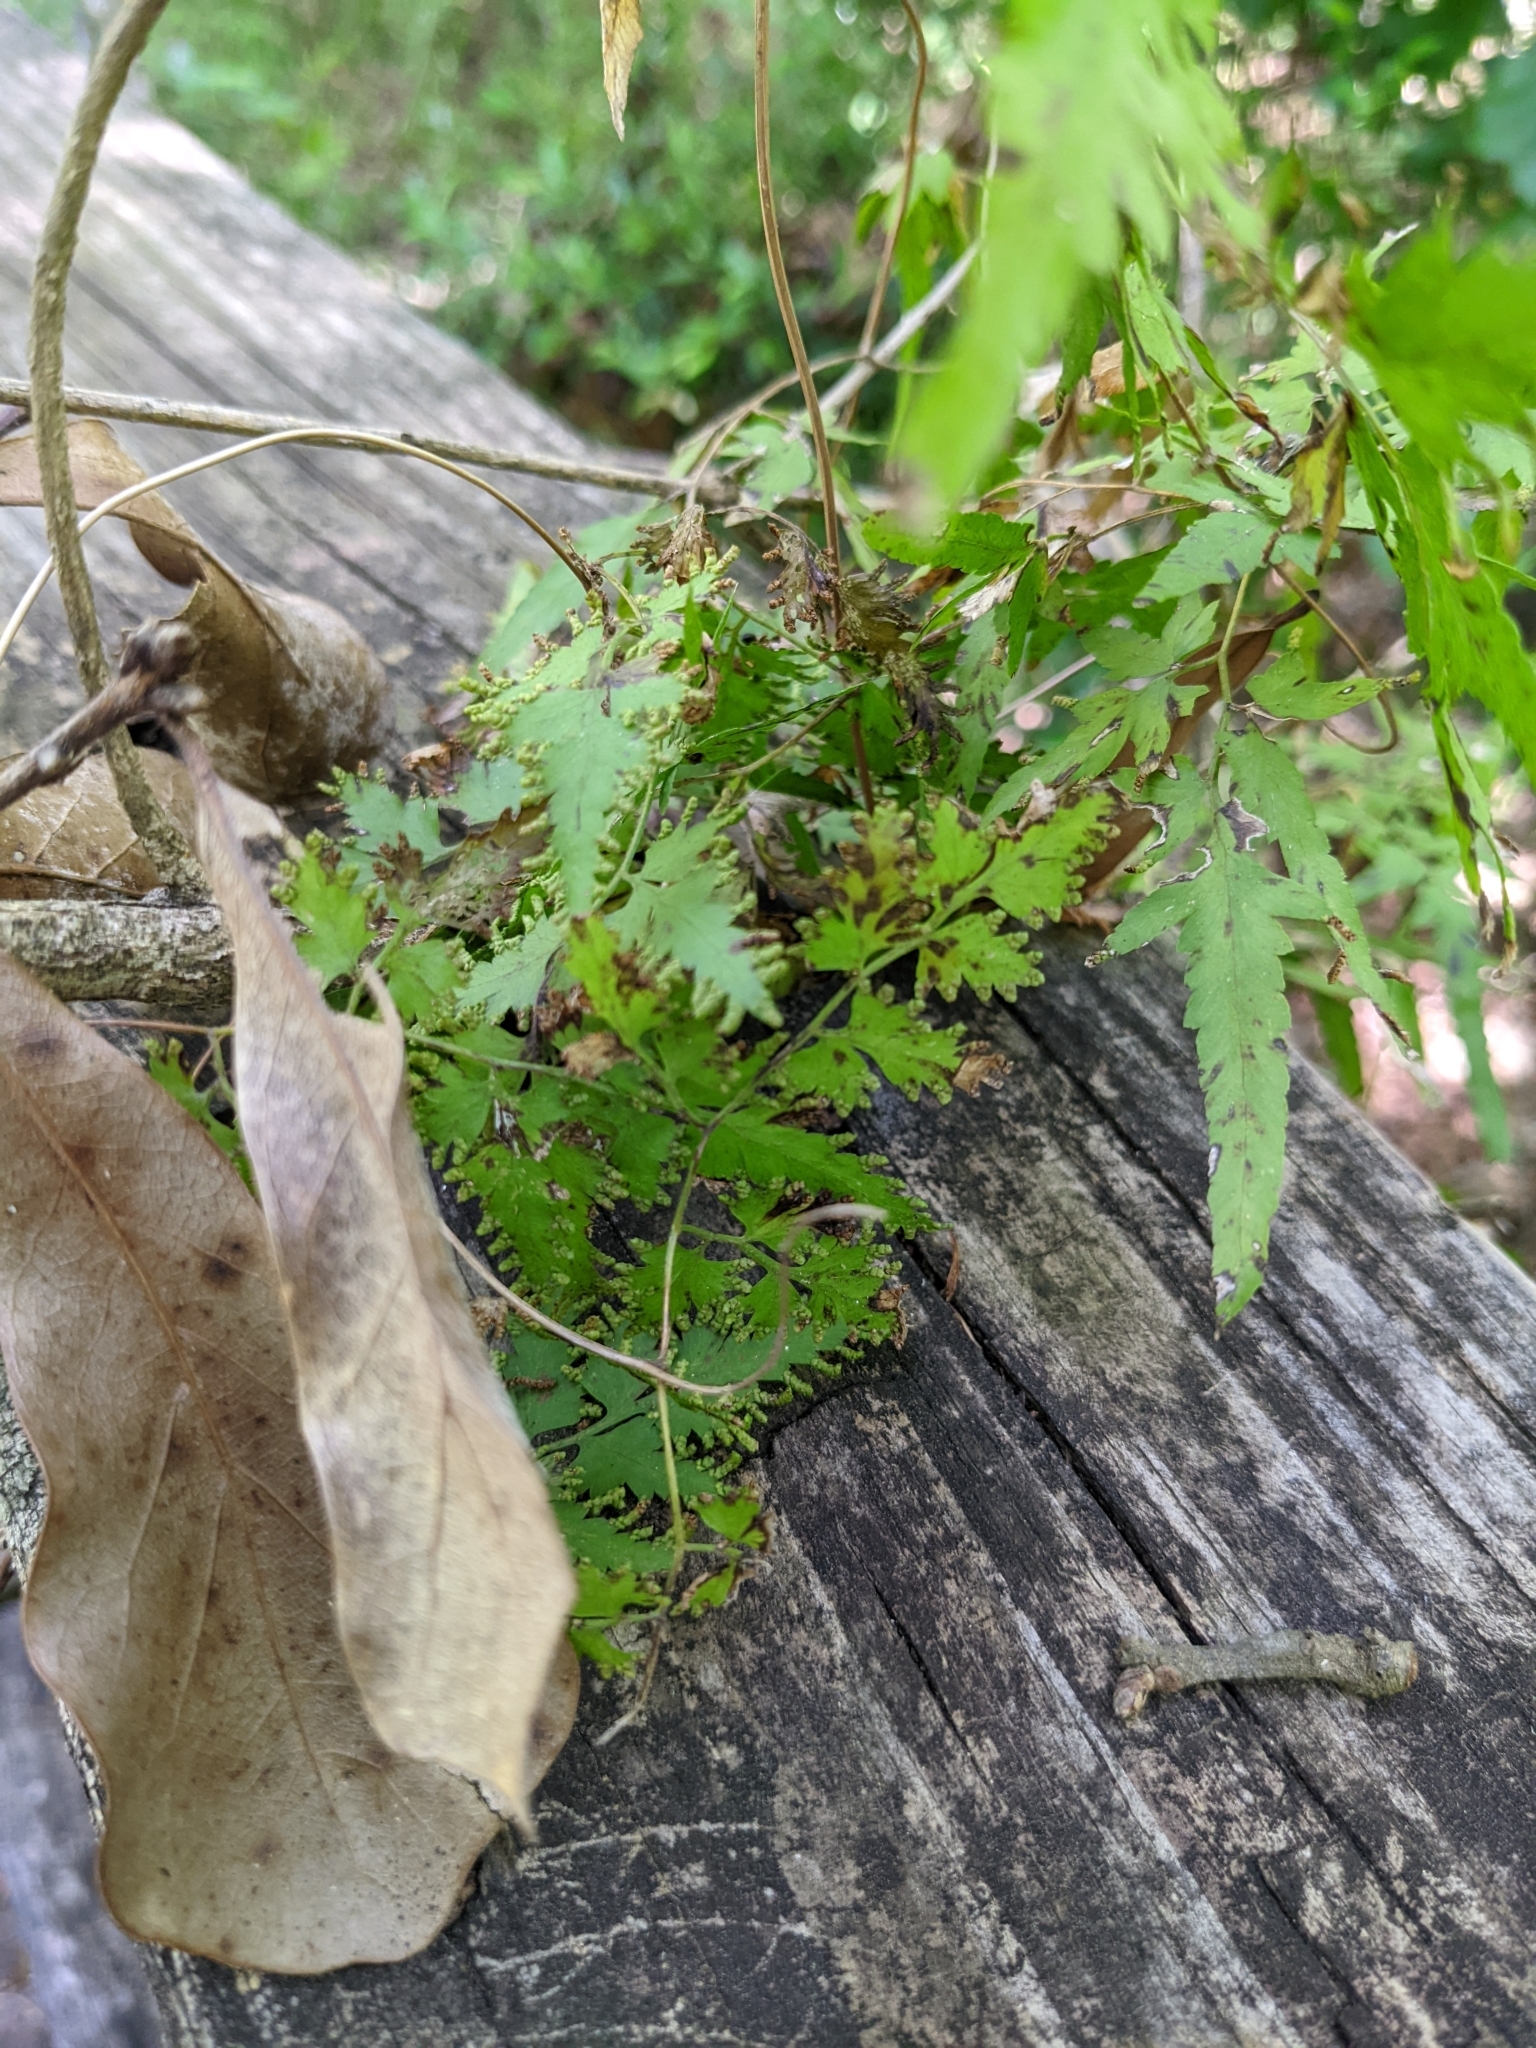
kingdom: Plantae
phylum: Tracheophyta
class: Polypodiopsida
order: Schizaeales
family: Lygodiaceae
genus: Lygodium
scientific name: Lygodium japonicum
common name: Japanese climbing fern
